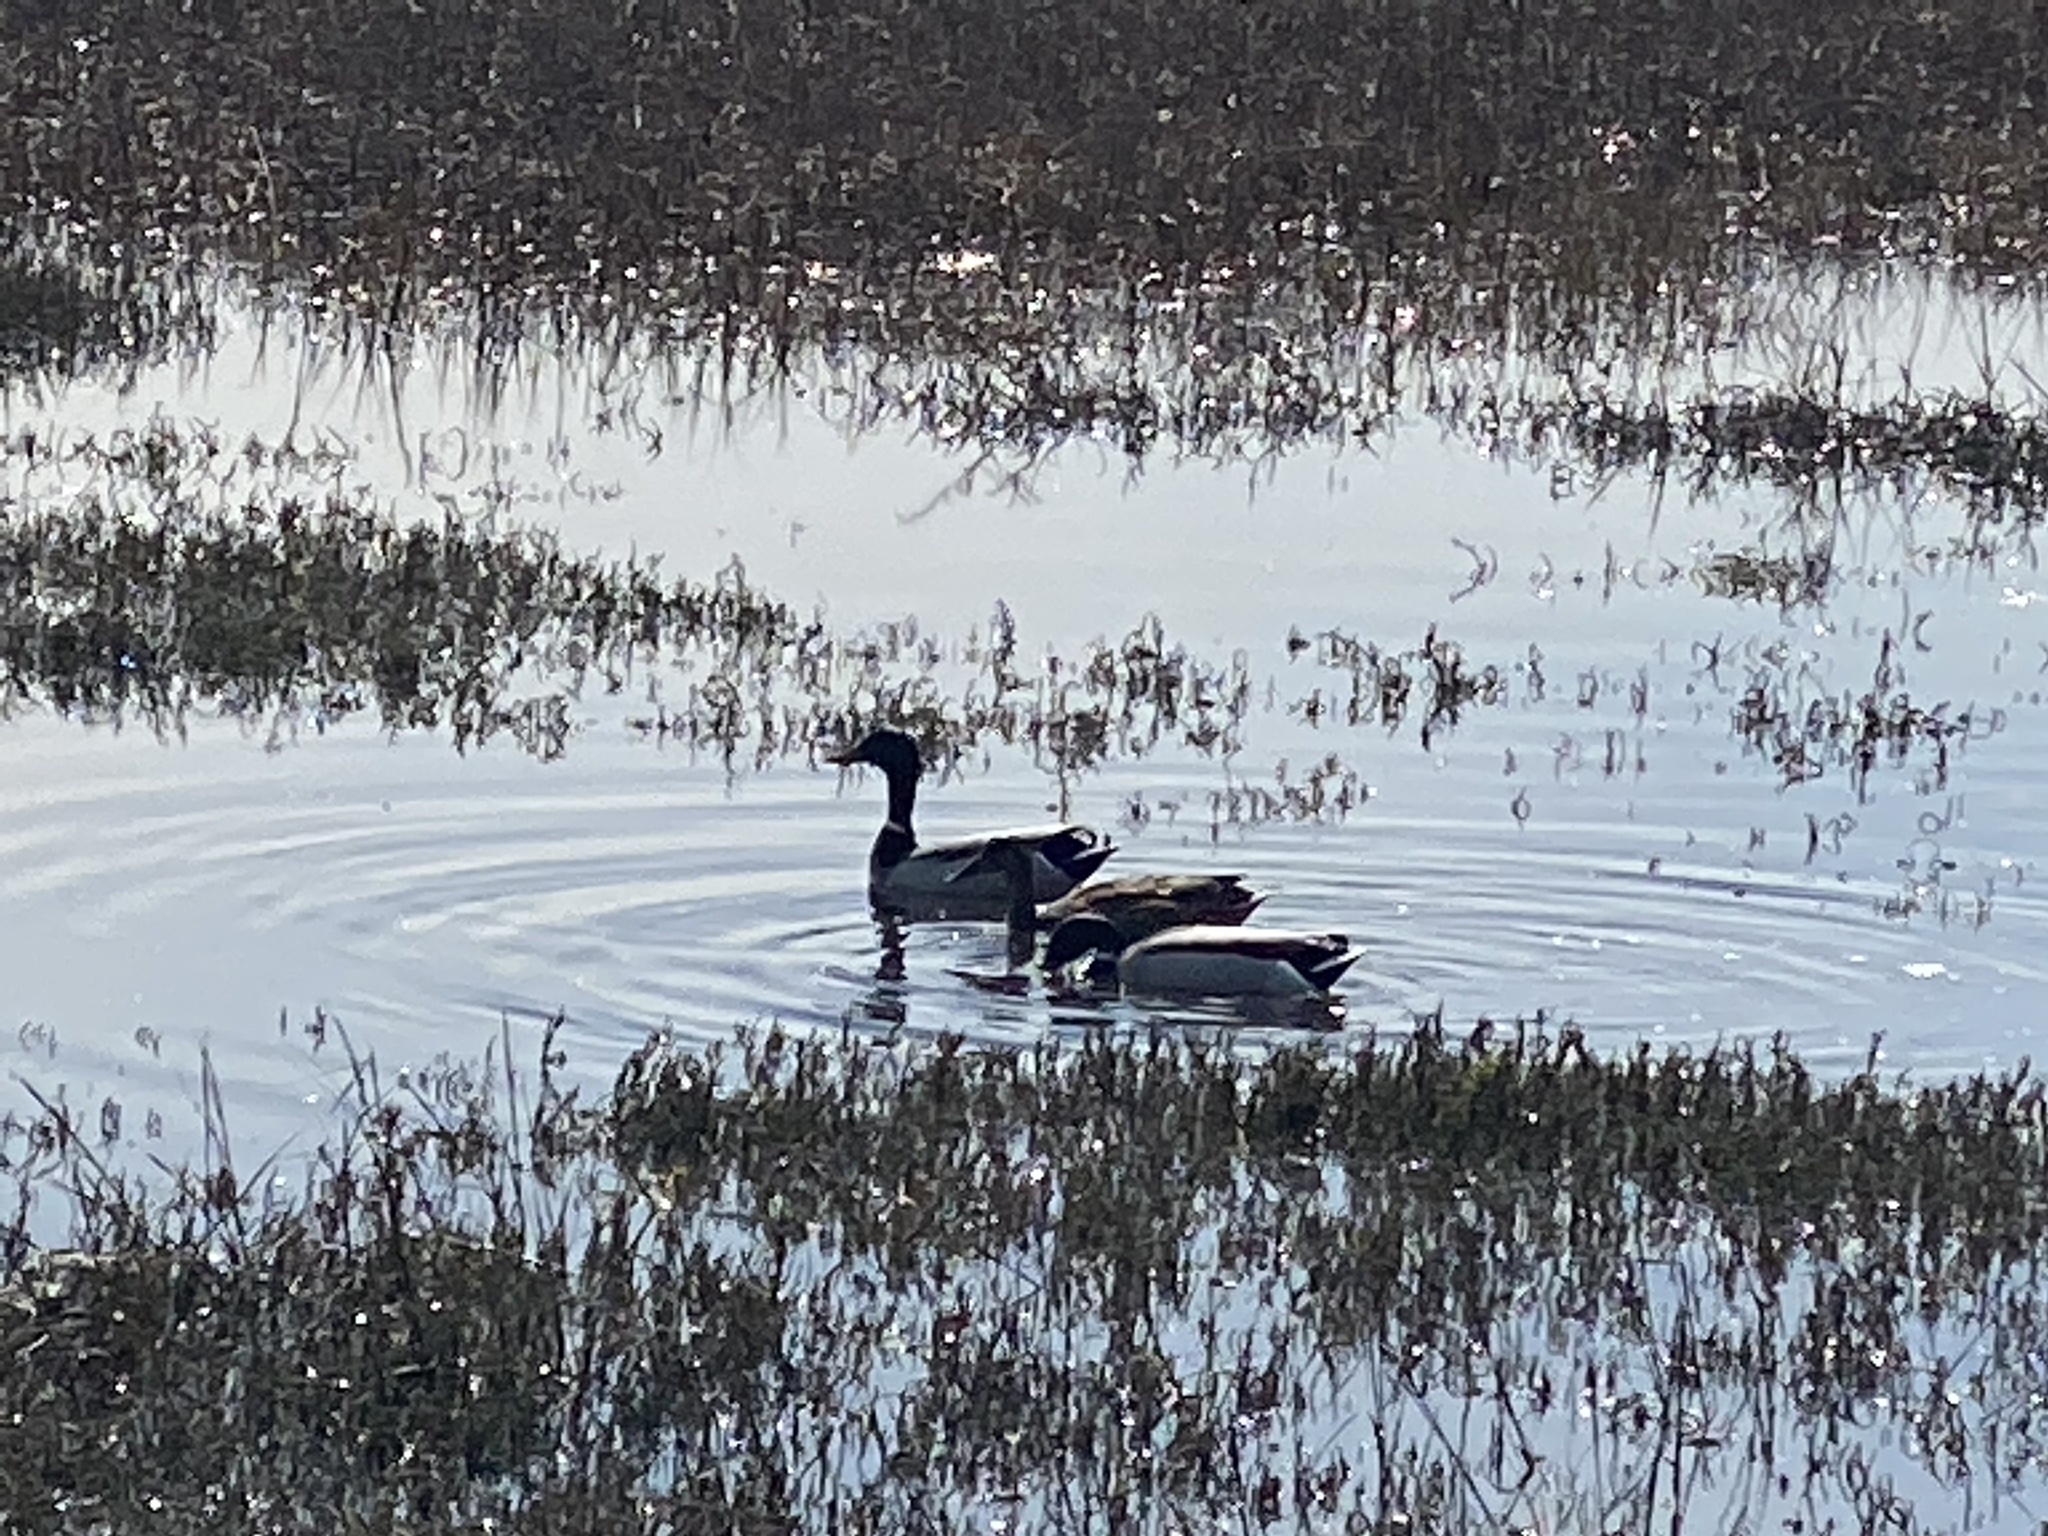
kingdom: Animalia
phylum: Chordata
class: Aves
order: Anseriformes
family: Anatidae
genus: Anas
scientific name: Anas platyrhynchos
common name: Mallard
